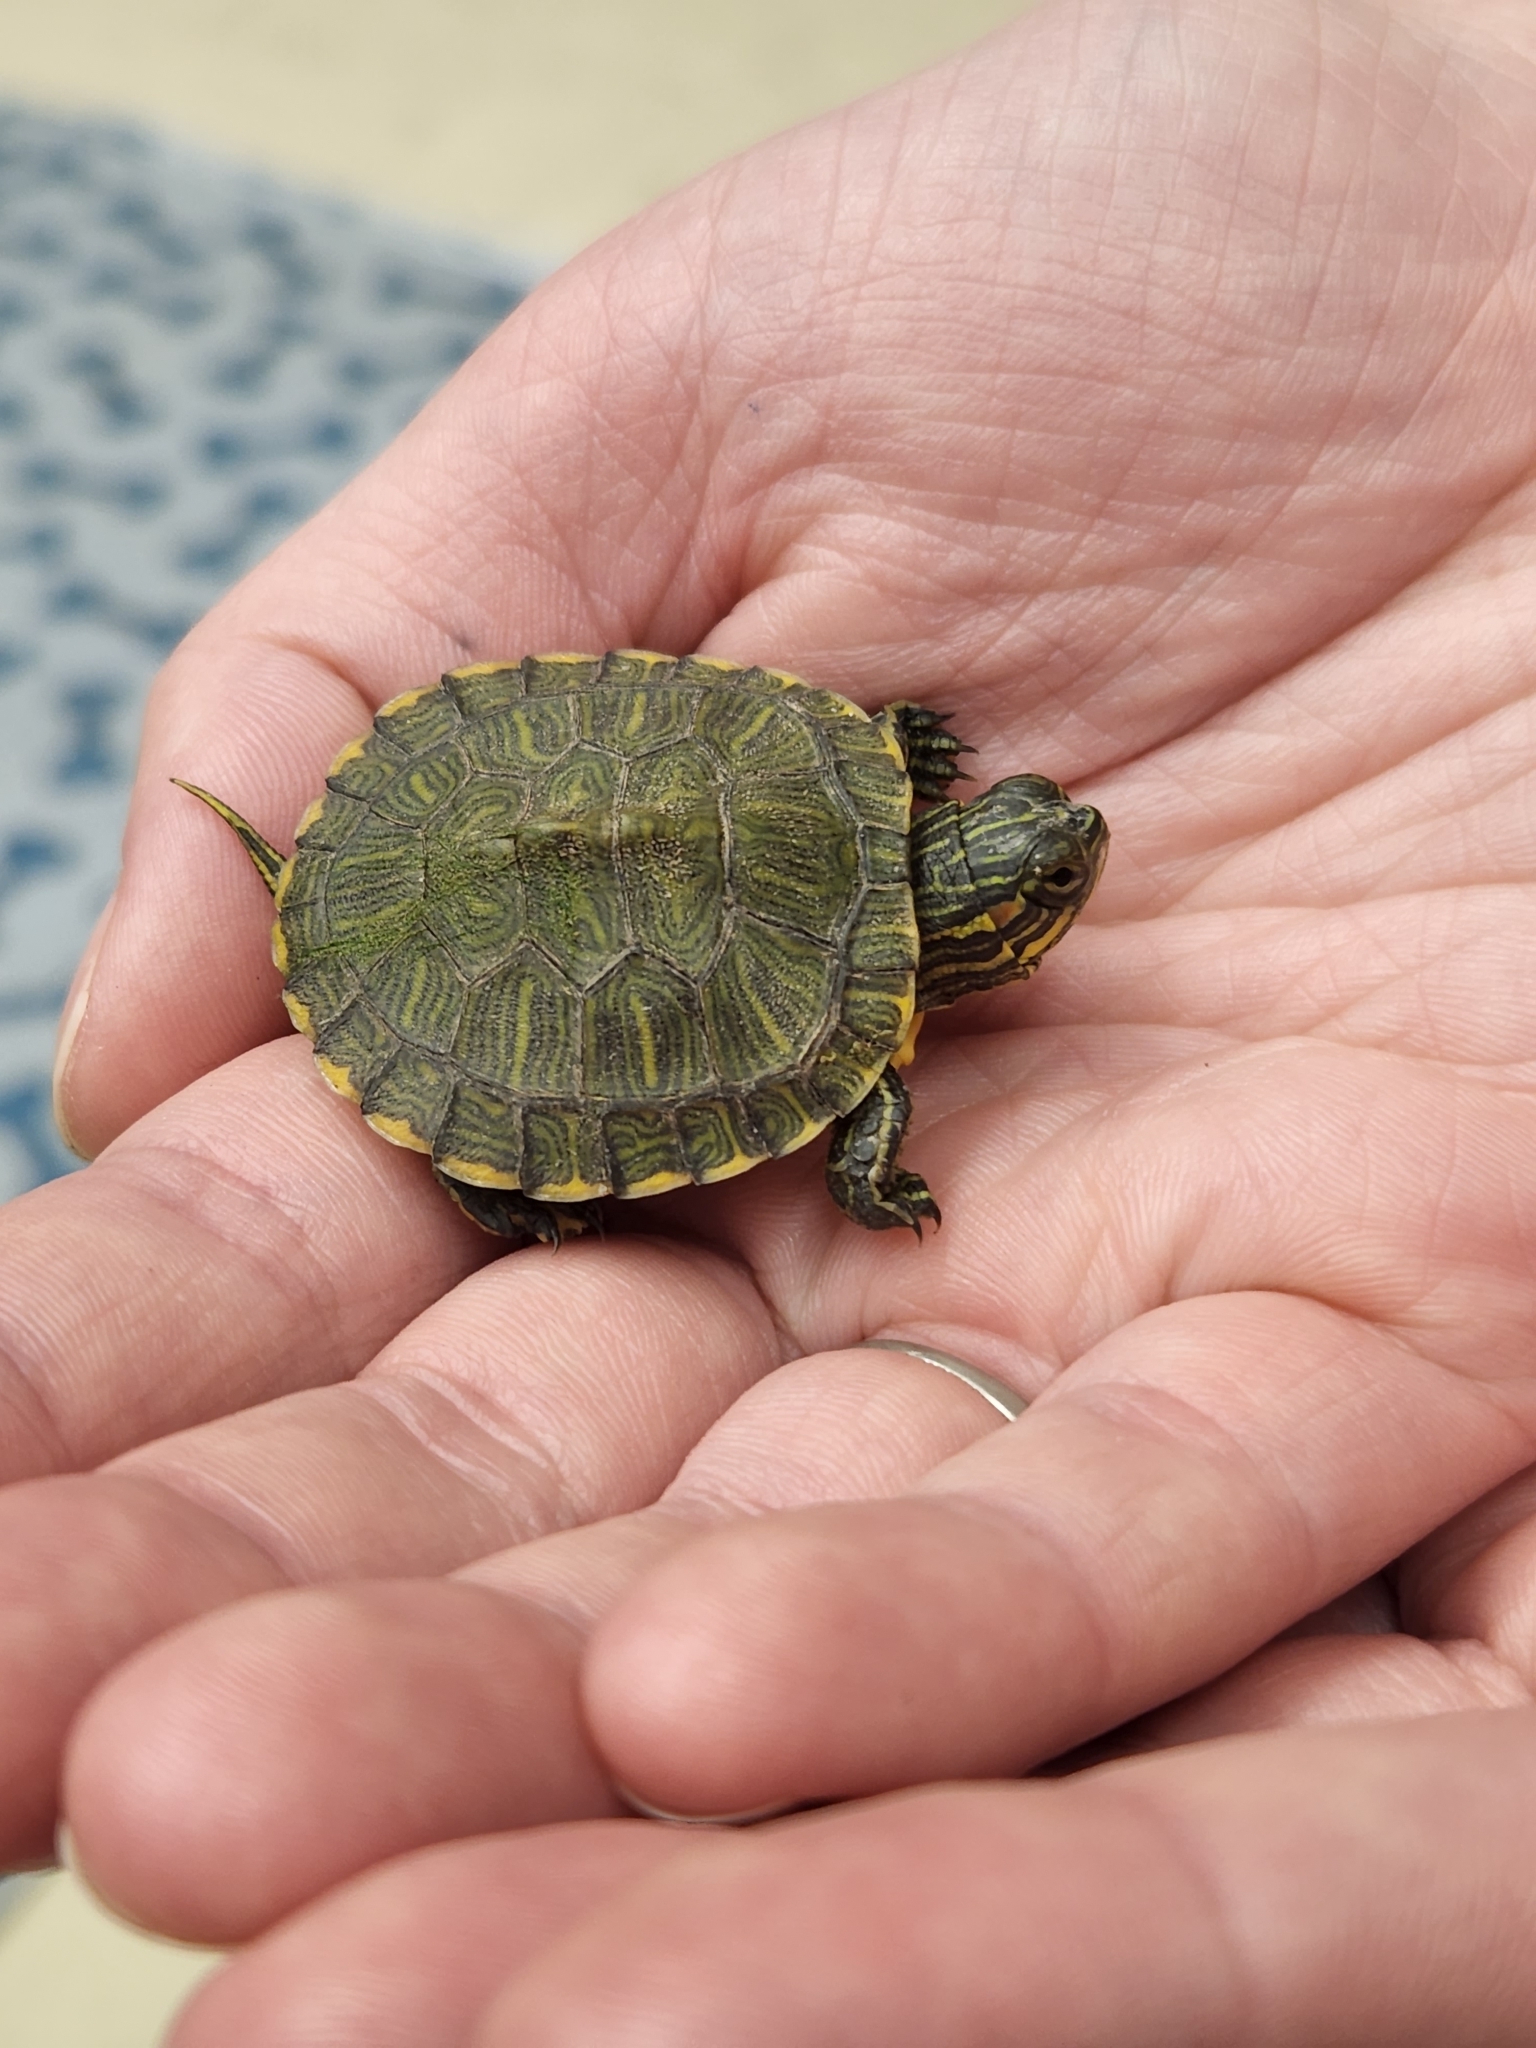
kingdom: Animalia
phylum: Chordata
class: Testudines
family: Emydidae
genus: Trachemys
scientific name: Trachemys scripta
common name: Slider
